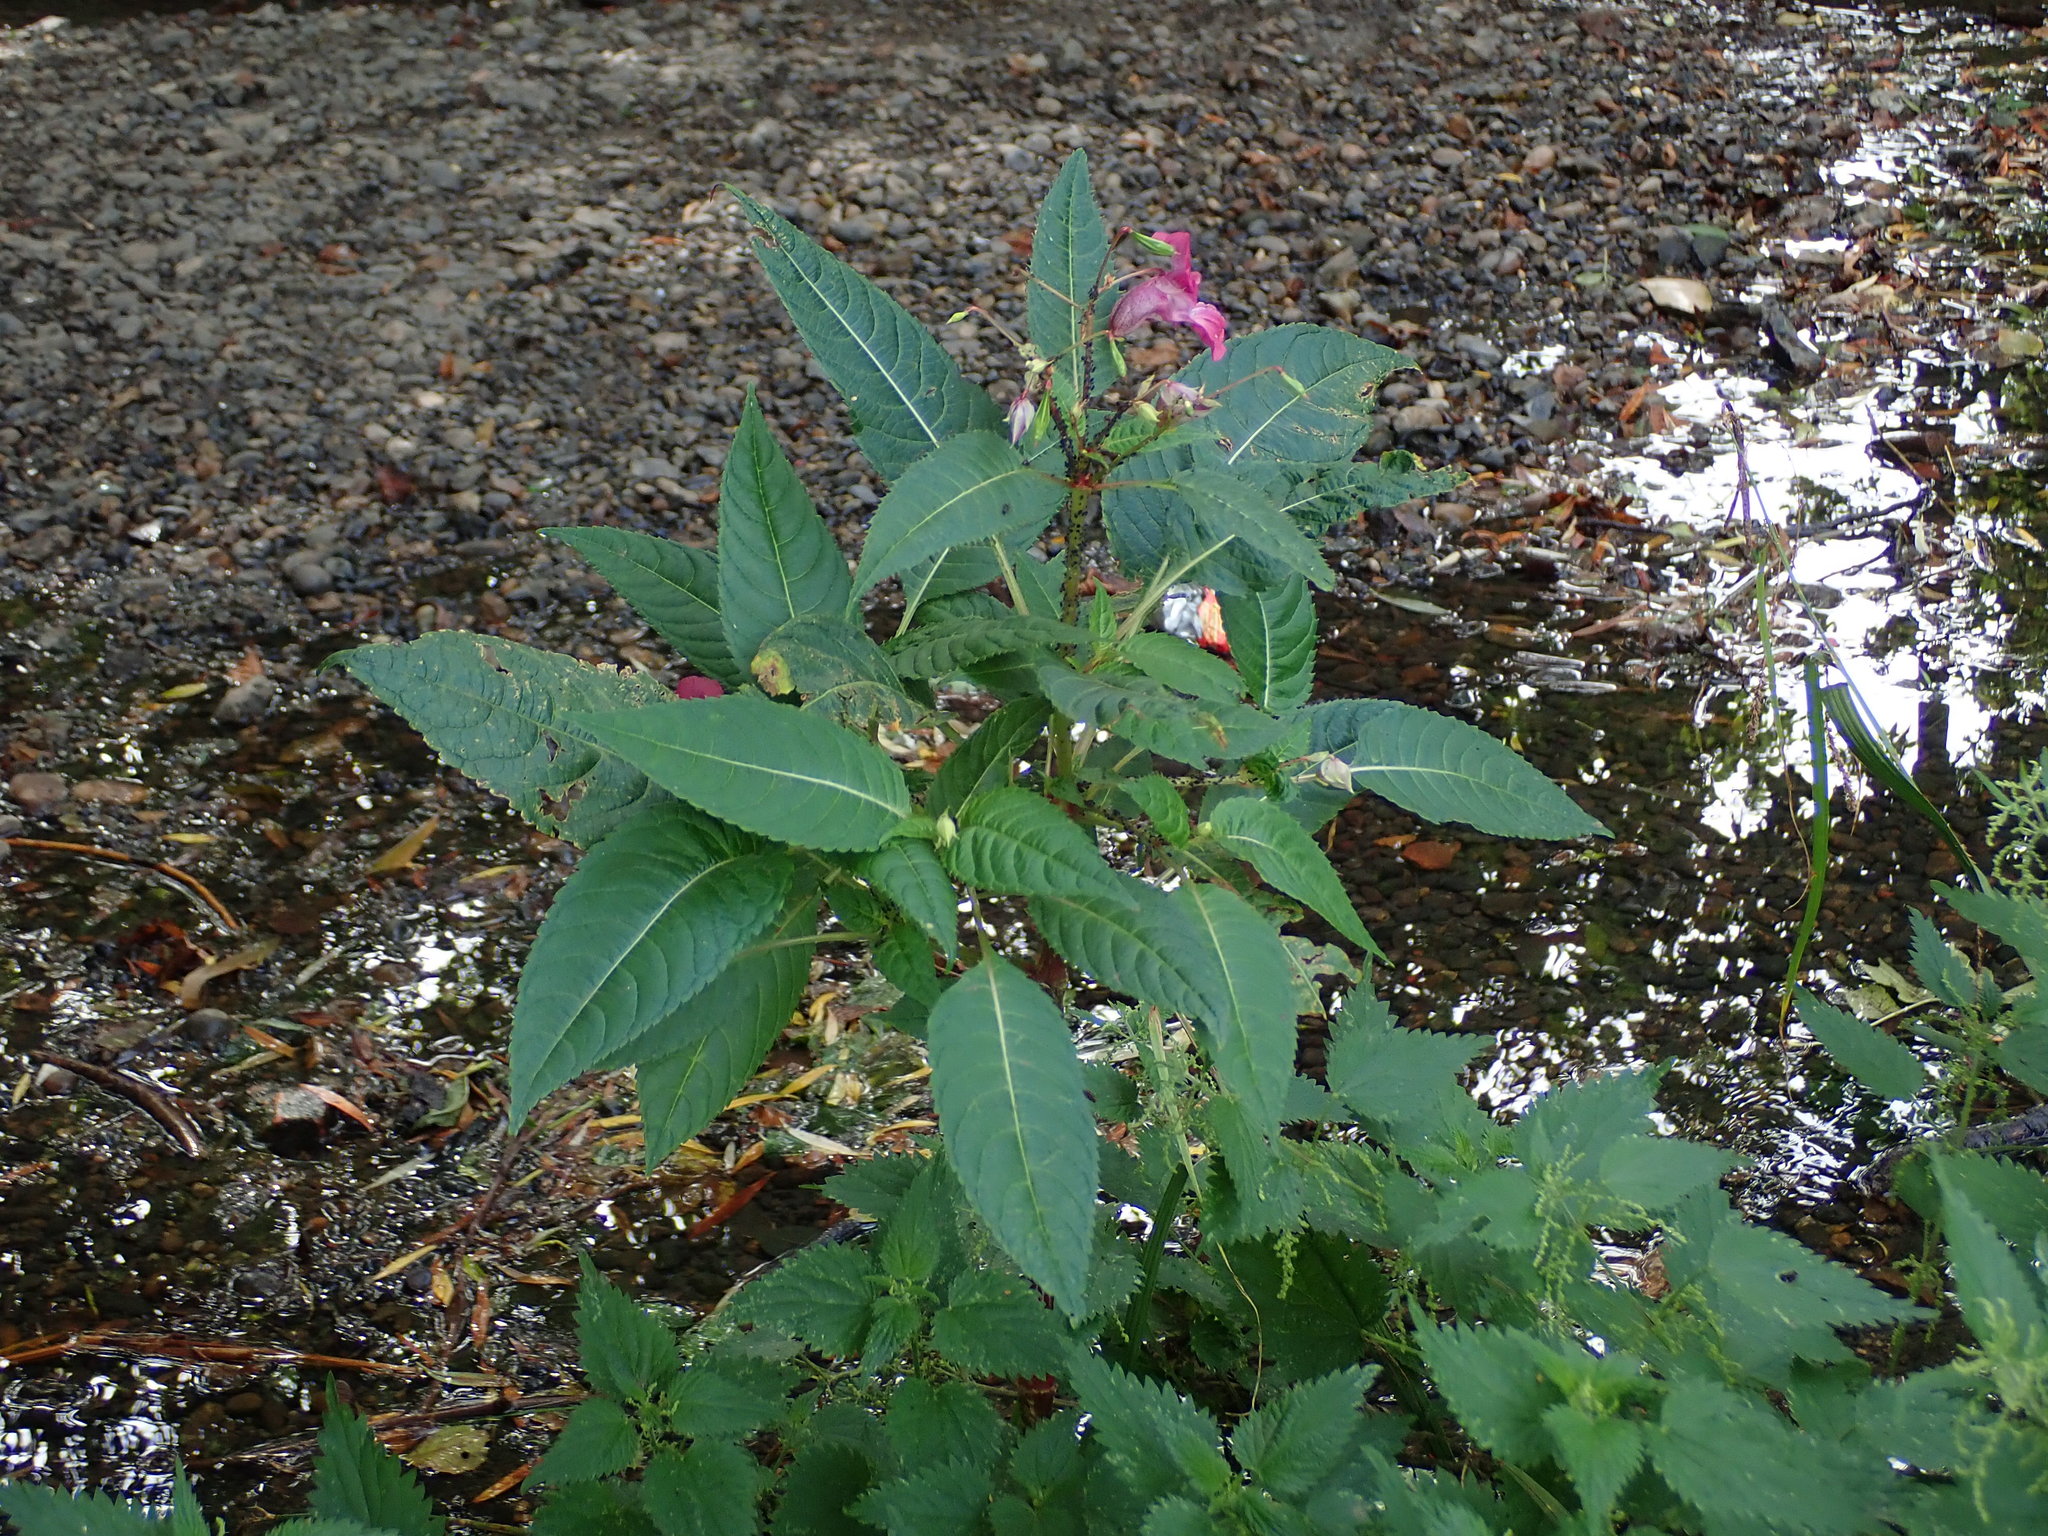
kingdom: Plantae
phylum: Tracheophyta
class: Magnoliopsida
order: Ericales
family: Balsaminaceae
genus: Impatiens
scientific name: Impatiens glandulifera
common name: Himalayan balsam
